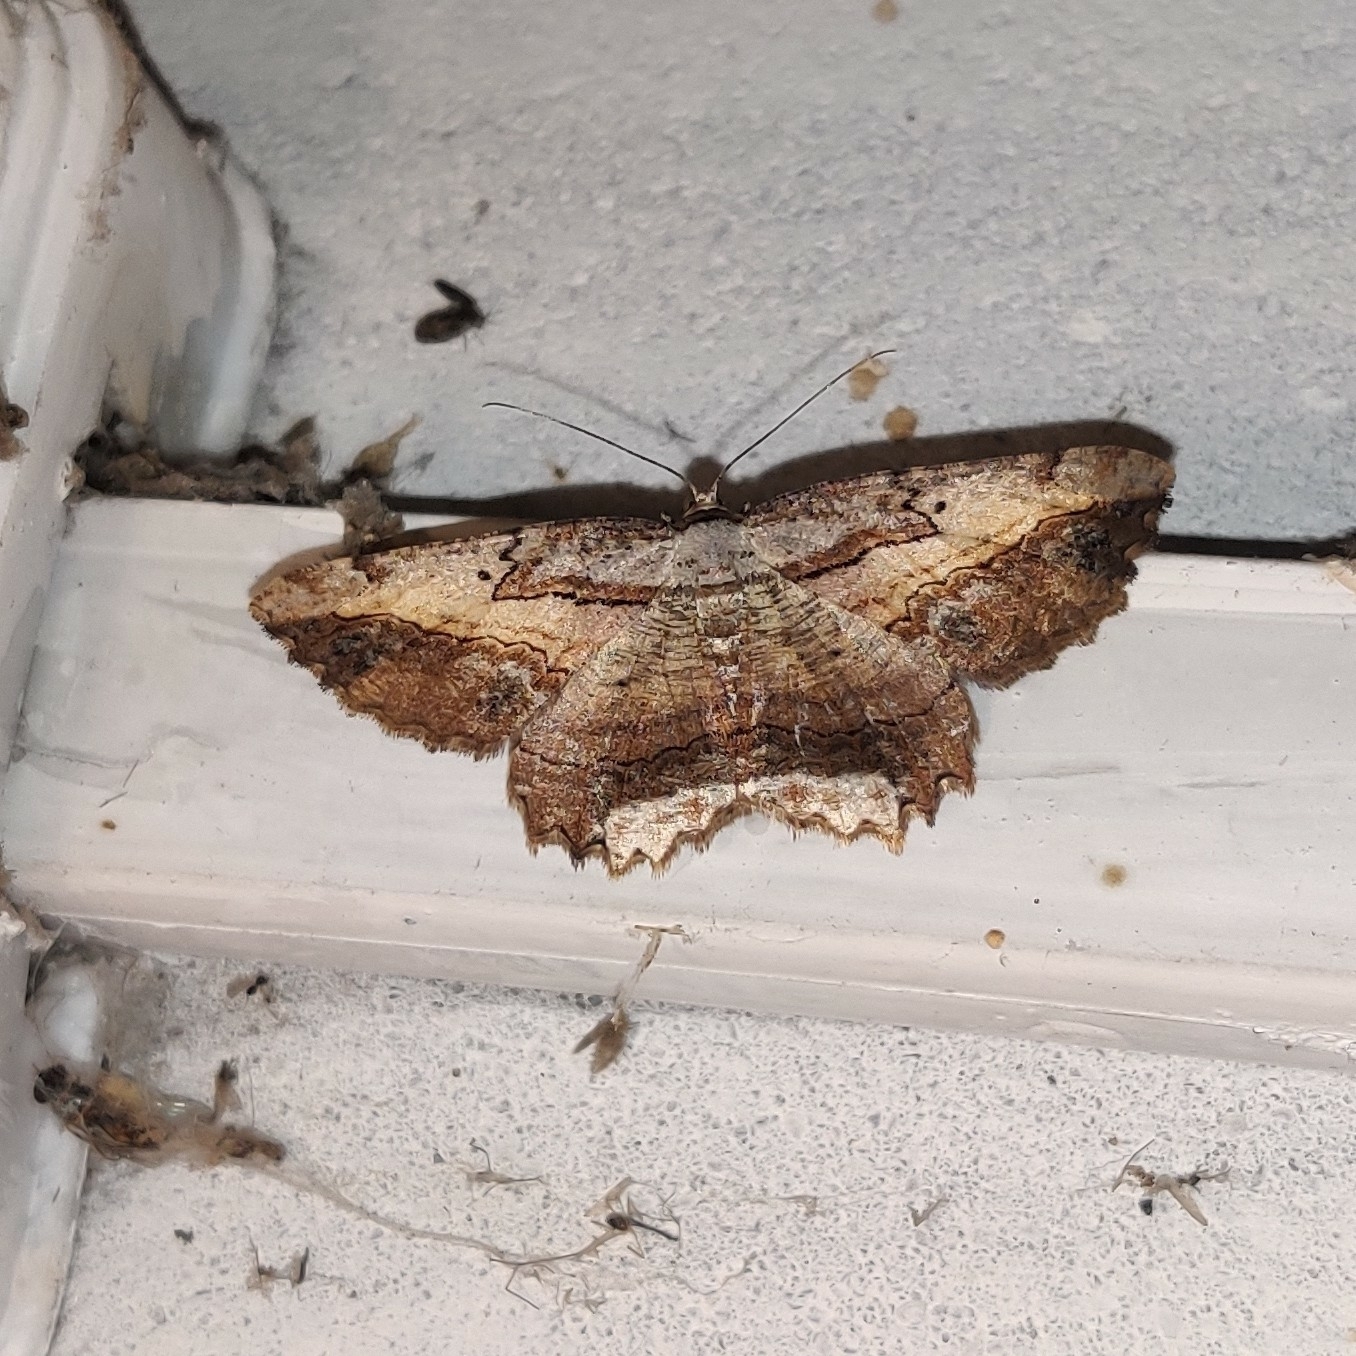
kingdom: Animalia
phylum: Arthropoda
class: Insecta
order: Lepidoptera
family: Geometridae
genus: Menophra
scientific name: Menophra subplagiata
